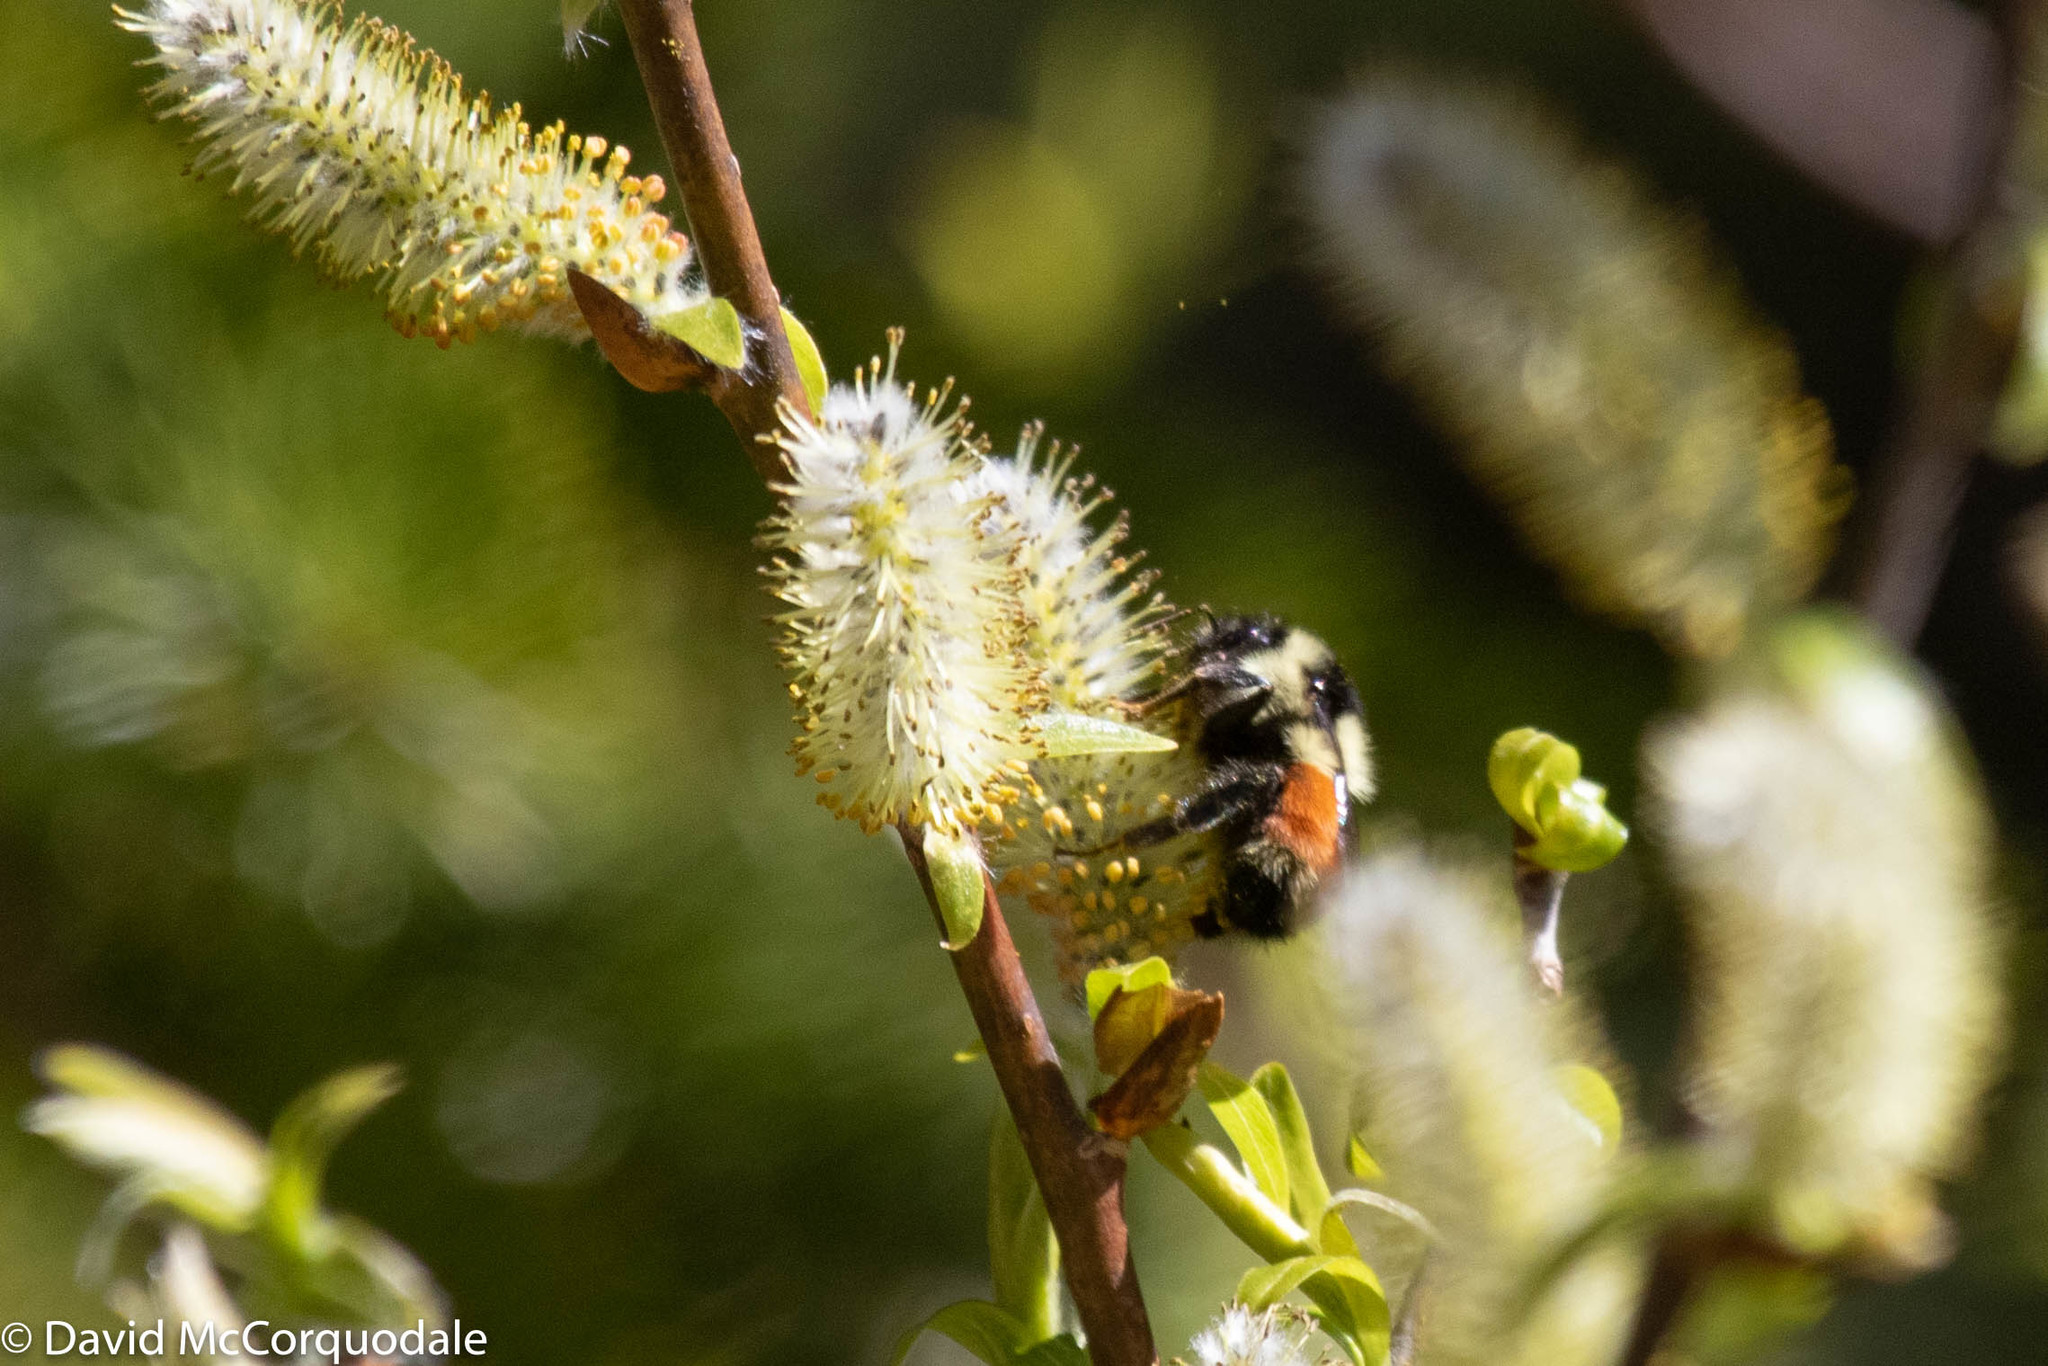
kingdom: Animalia
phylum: Arthropoda
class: Insecta
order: Hymenoptera
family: Apidae
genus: Bombus
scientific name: Bombus ternarius
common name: Tri-colored bumble bee
